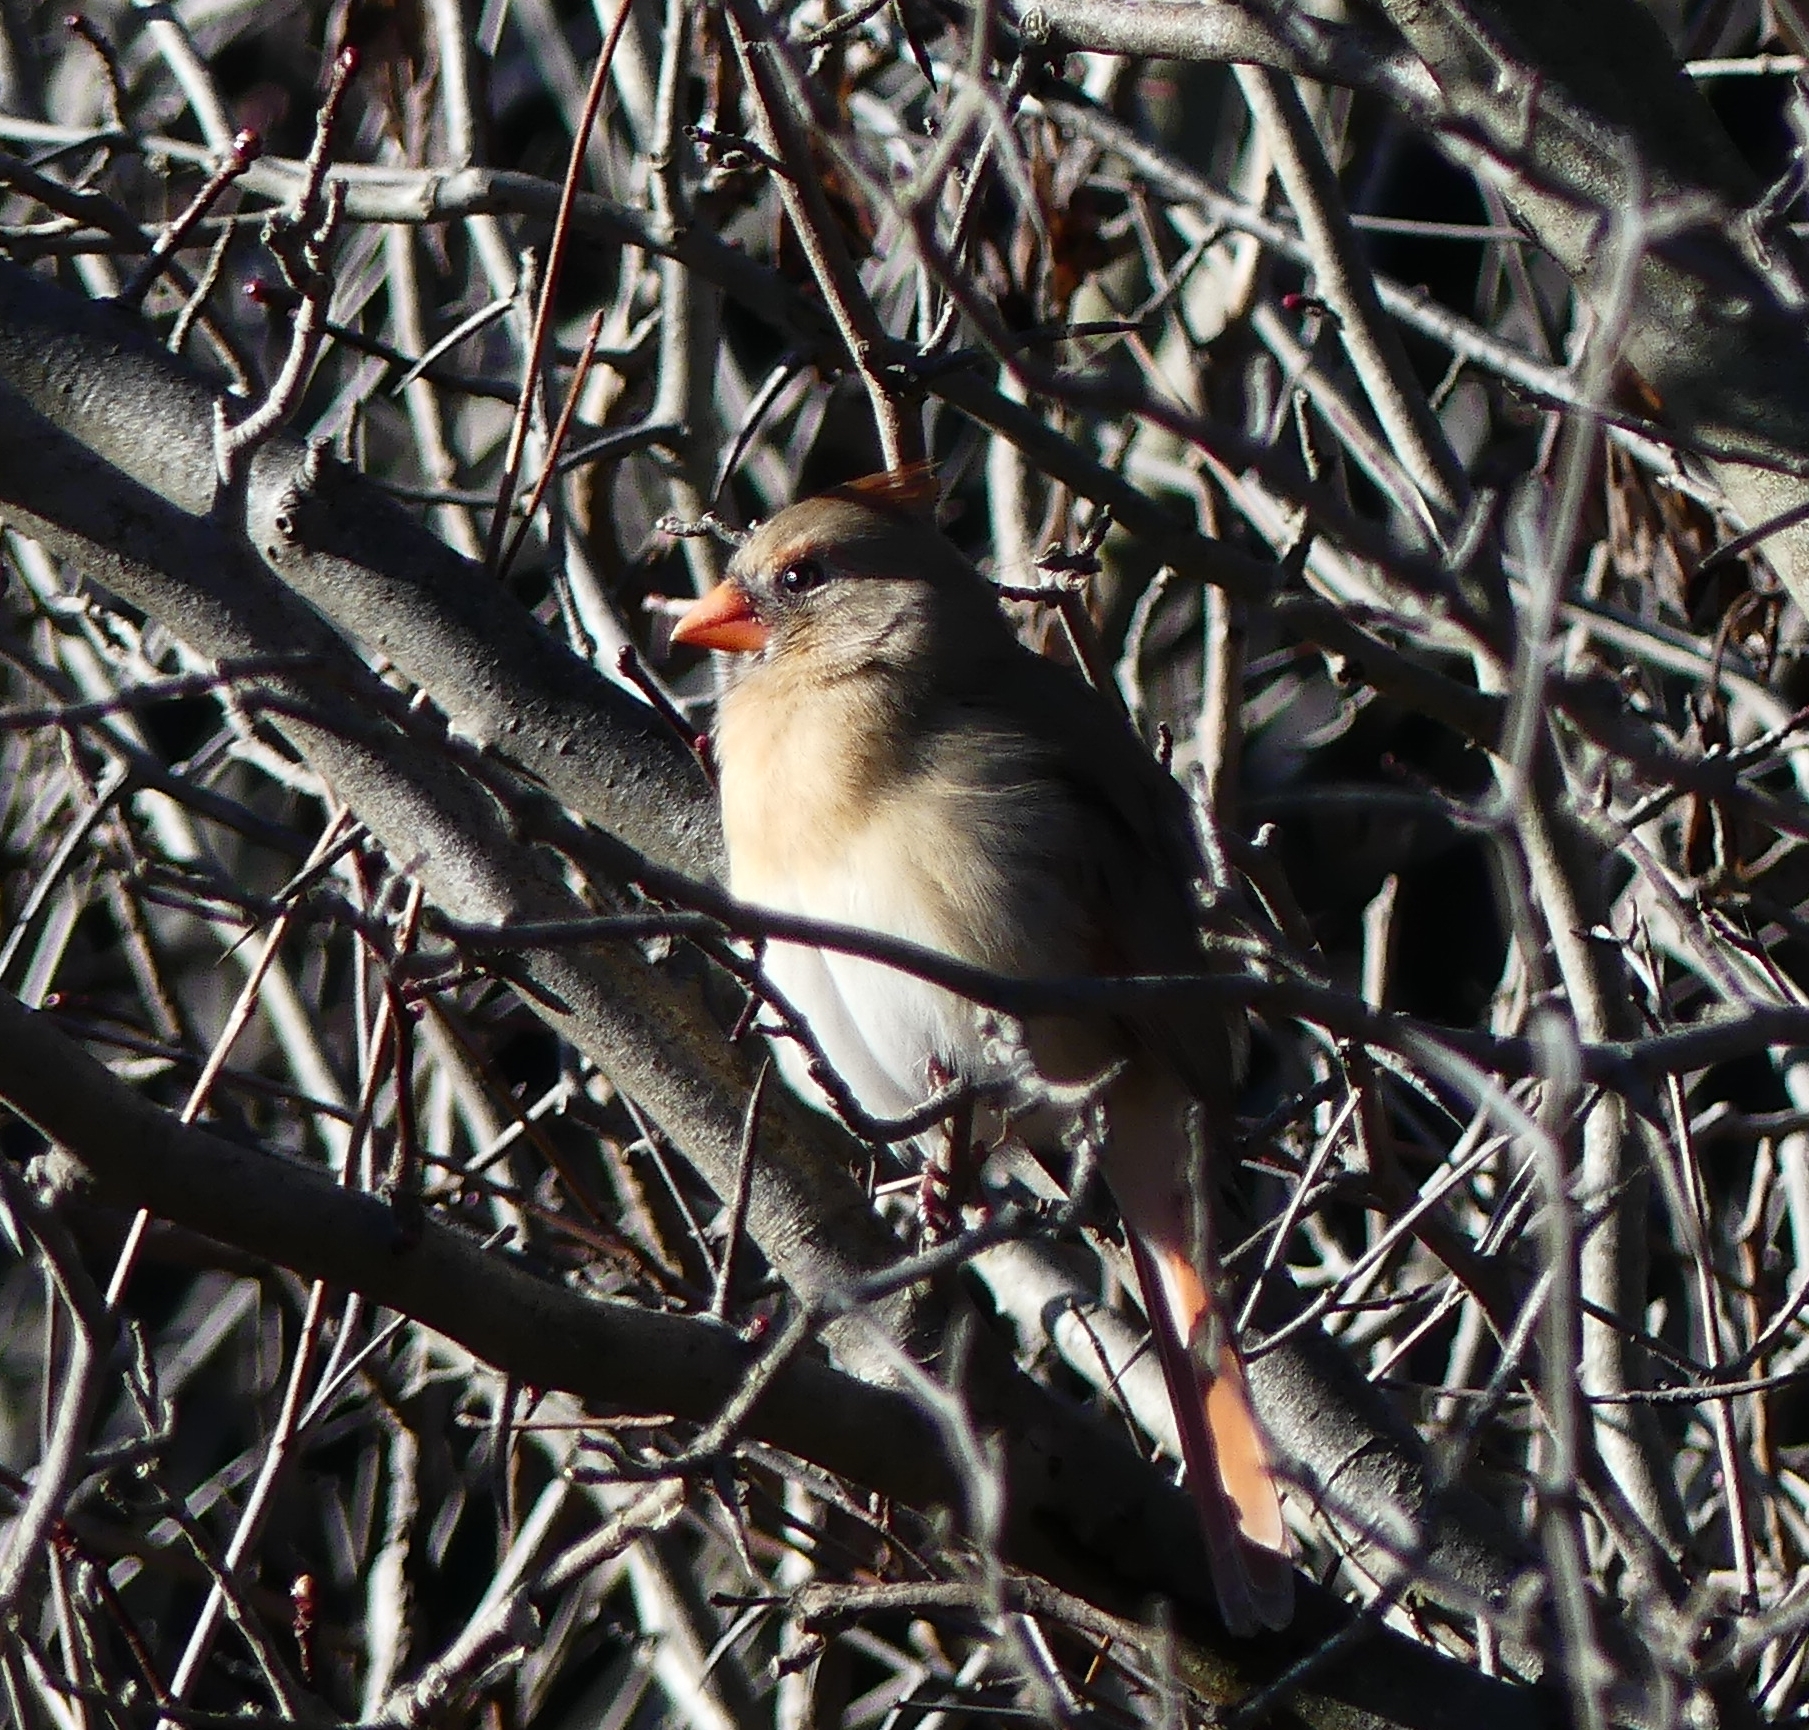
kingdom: Animalia
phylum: Chordata
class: Aves
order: Passeriformes
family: Cardinalidae
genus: Cardinalis
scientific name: Cardinalis cardinalis
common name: Northern cardinal
